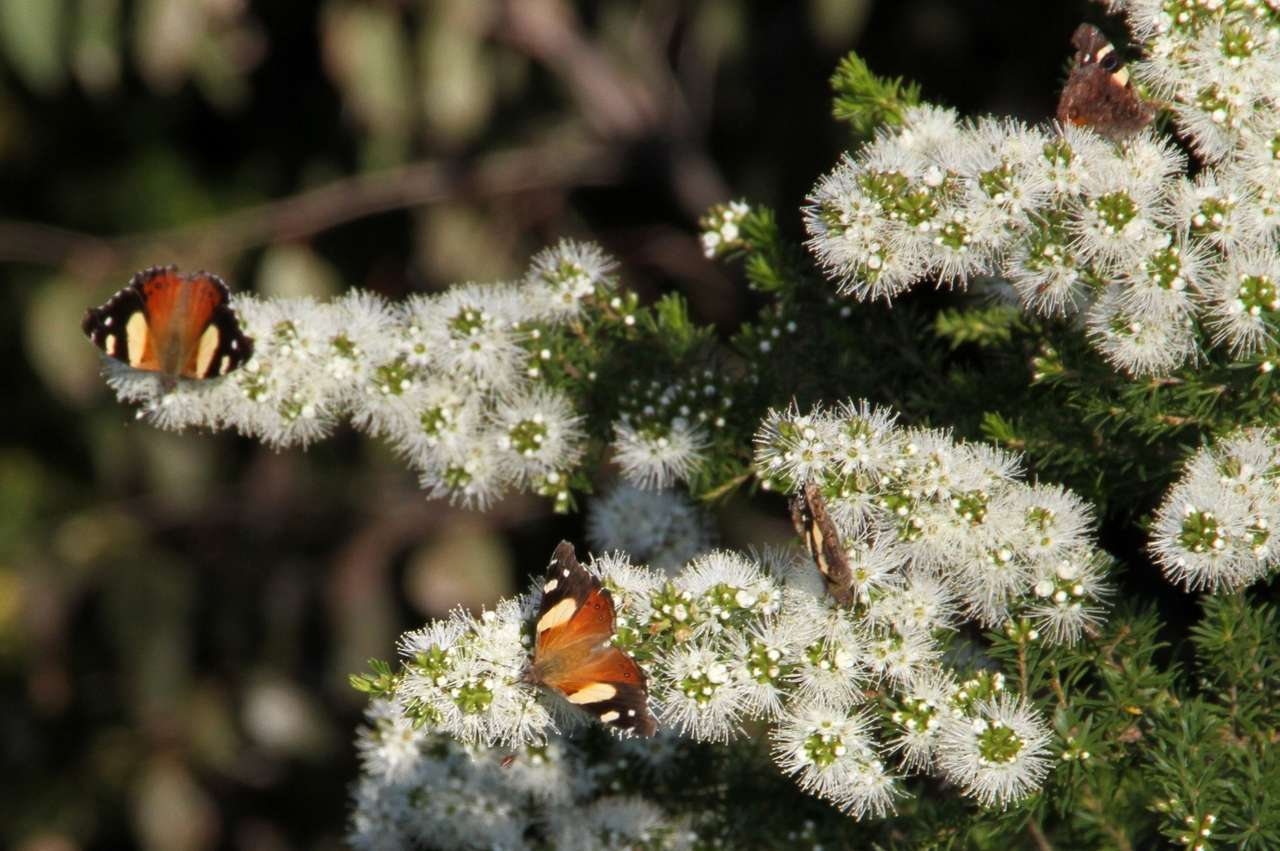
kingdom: Animalia
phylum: Arthropoda
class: Insecta
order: Lepidoptera
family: Nymphalidae
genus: Vanessa
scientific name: Vanessa itea
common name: Yellow admiral
